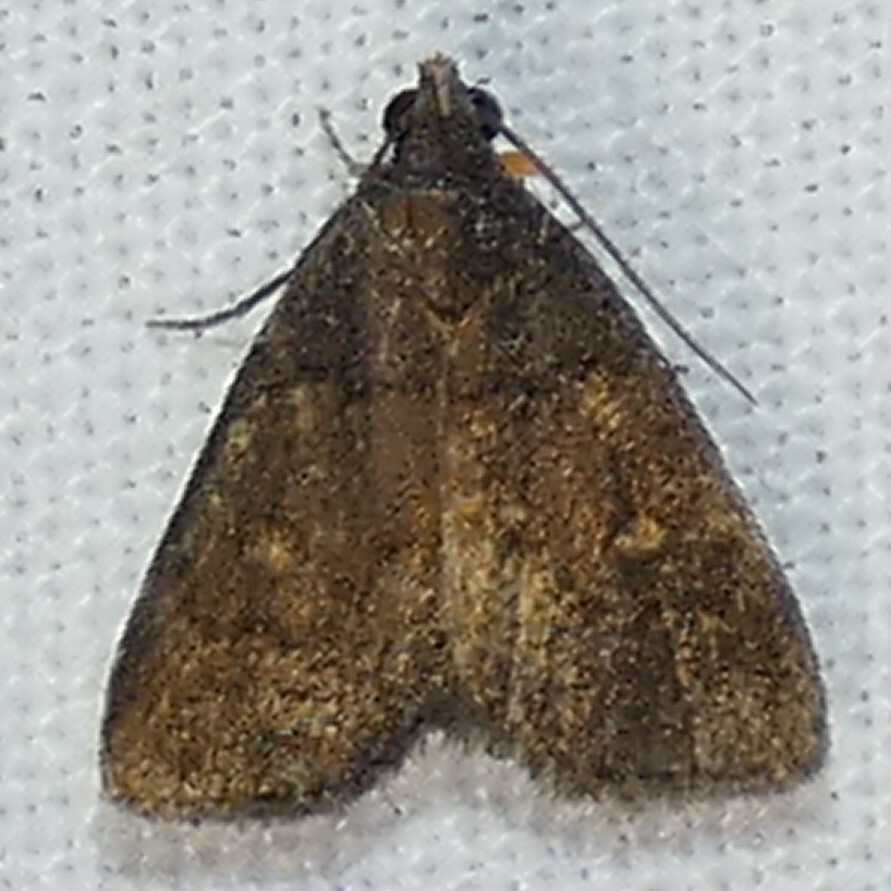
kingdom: Animalia
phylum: Arthropoda
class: Insecta
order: Lepidoptera
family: Erebidae
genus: Idia
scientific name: Idia diminuendis
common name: Orange-spotted idia moth
